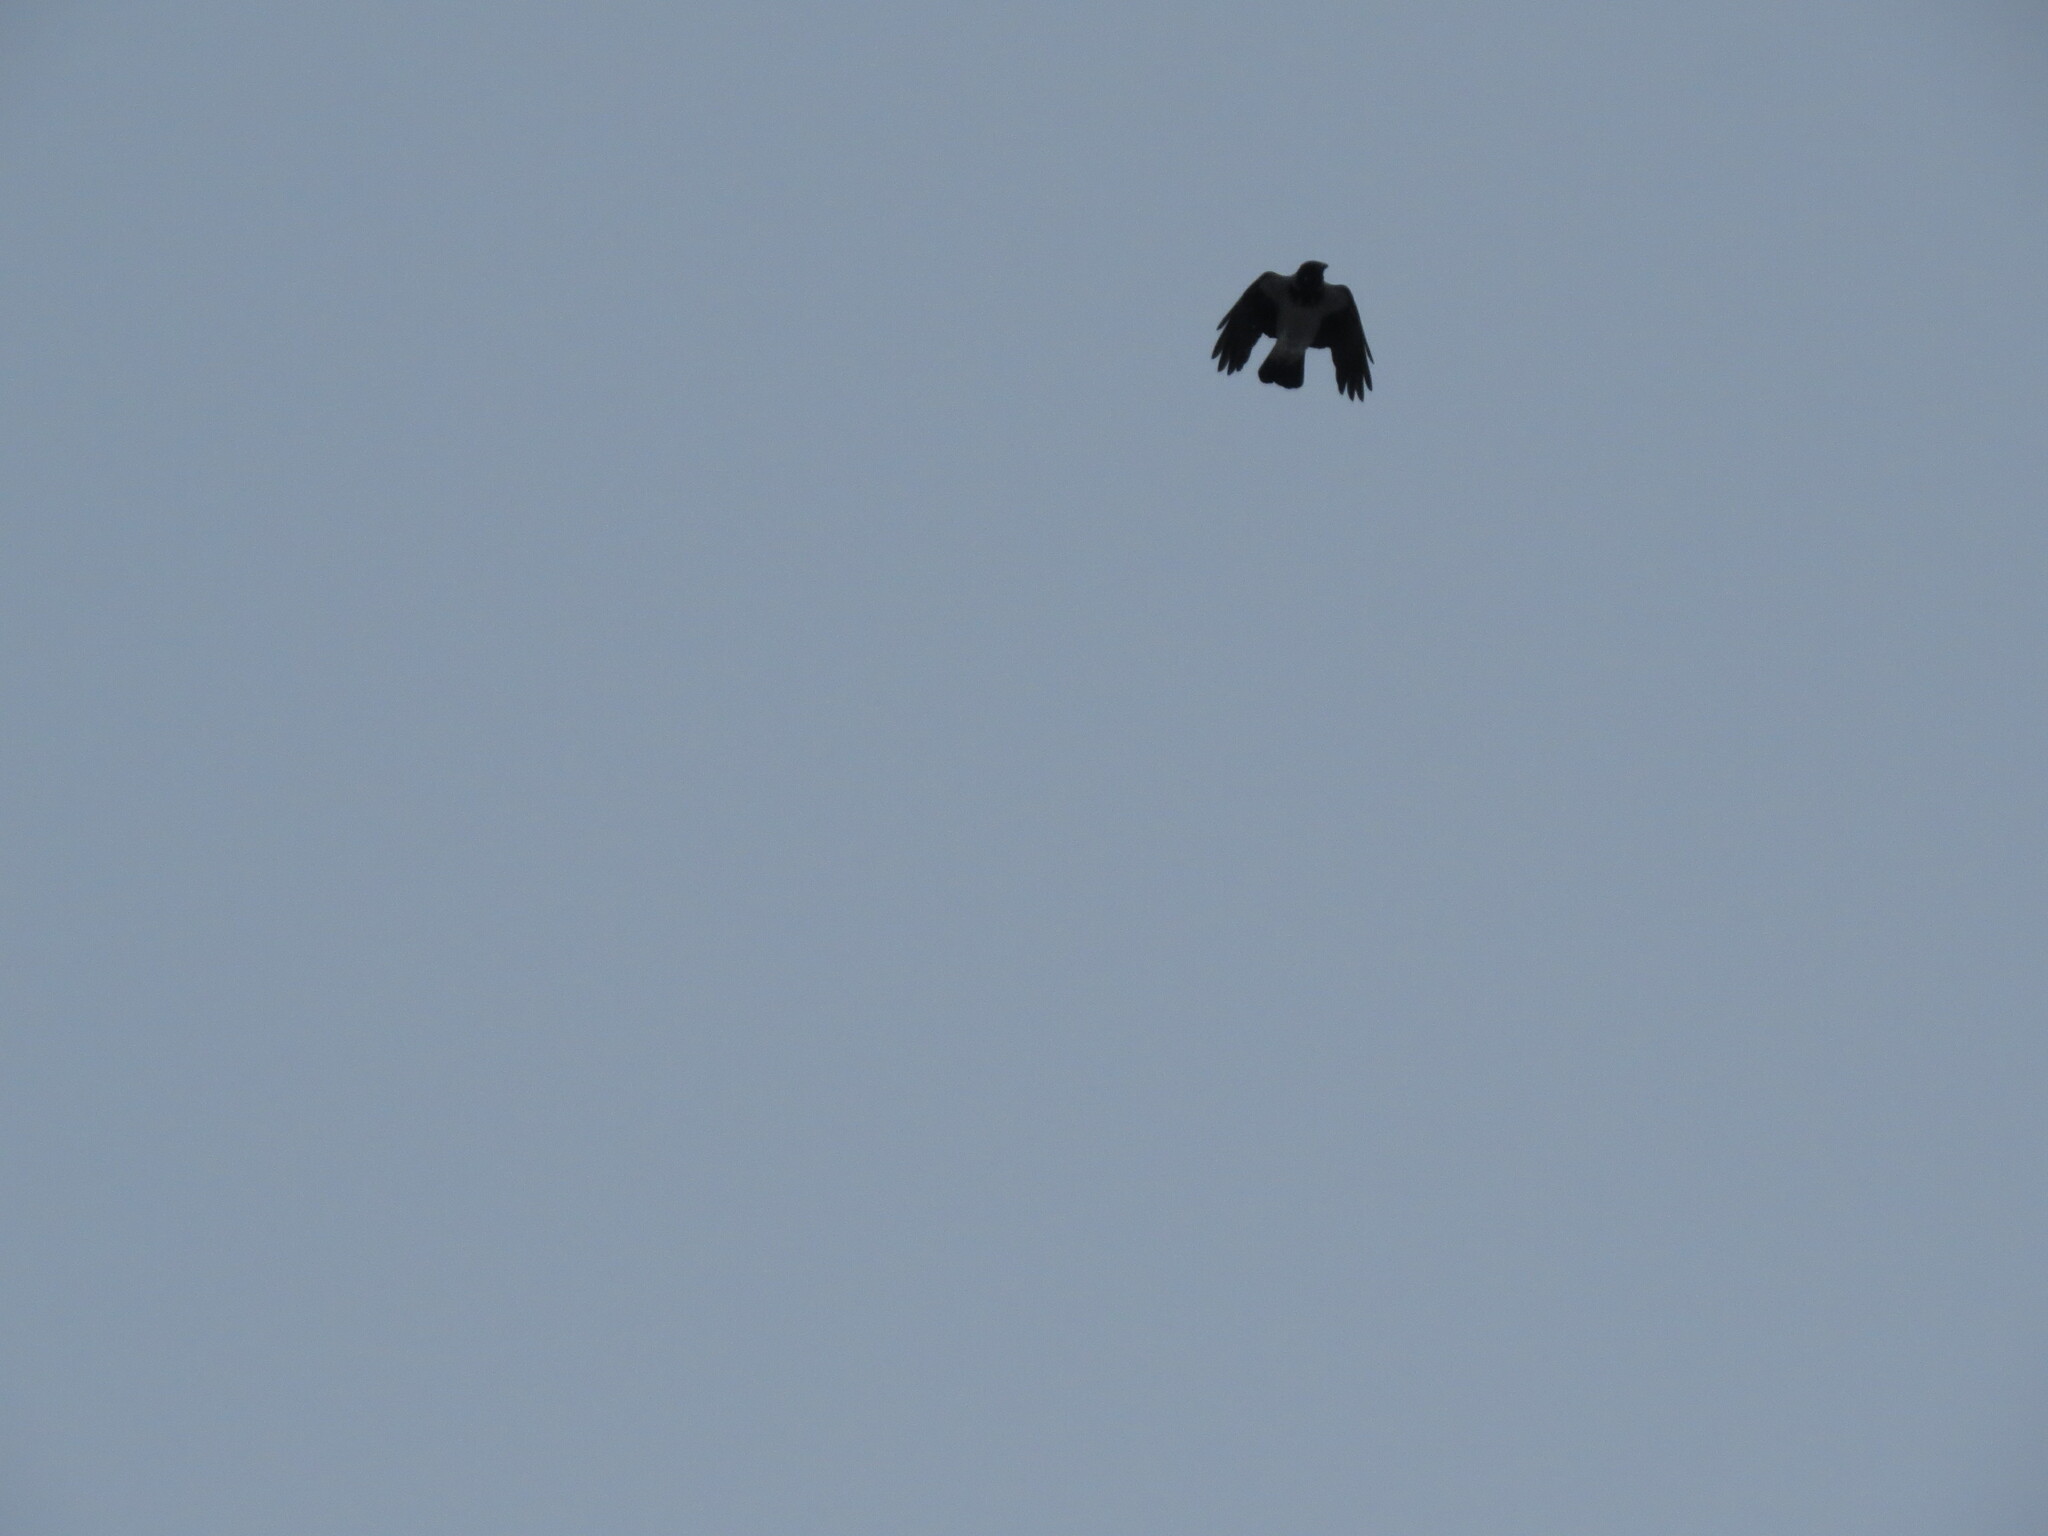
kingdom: Animalia
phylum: Chordata
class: Aves
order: Passeriformes
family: Corvidae
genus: Corvus
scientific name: Corvus cornix
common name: Hooded crow
